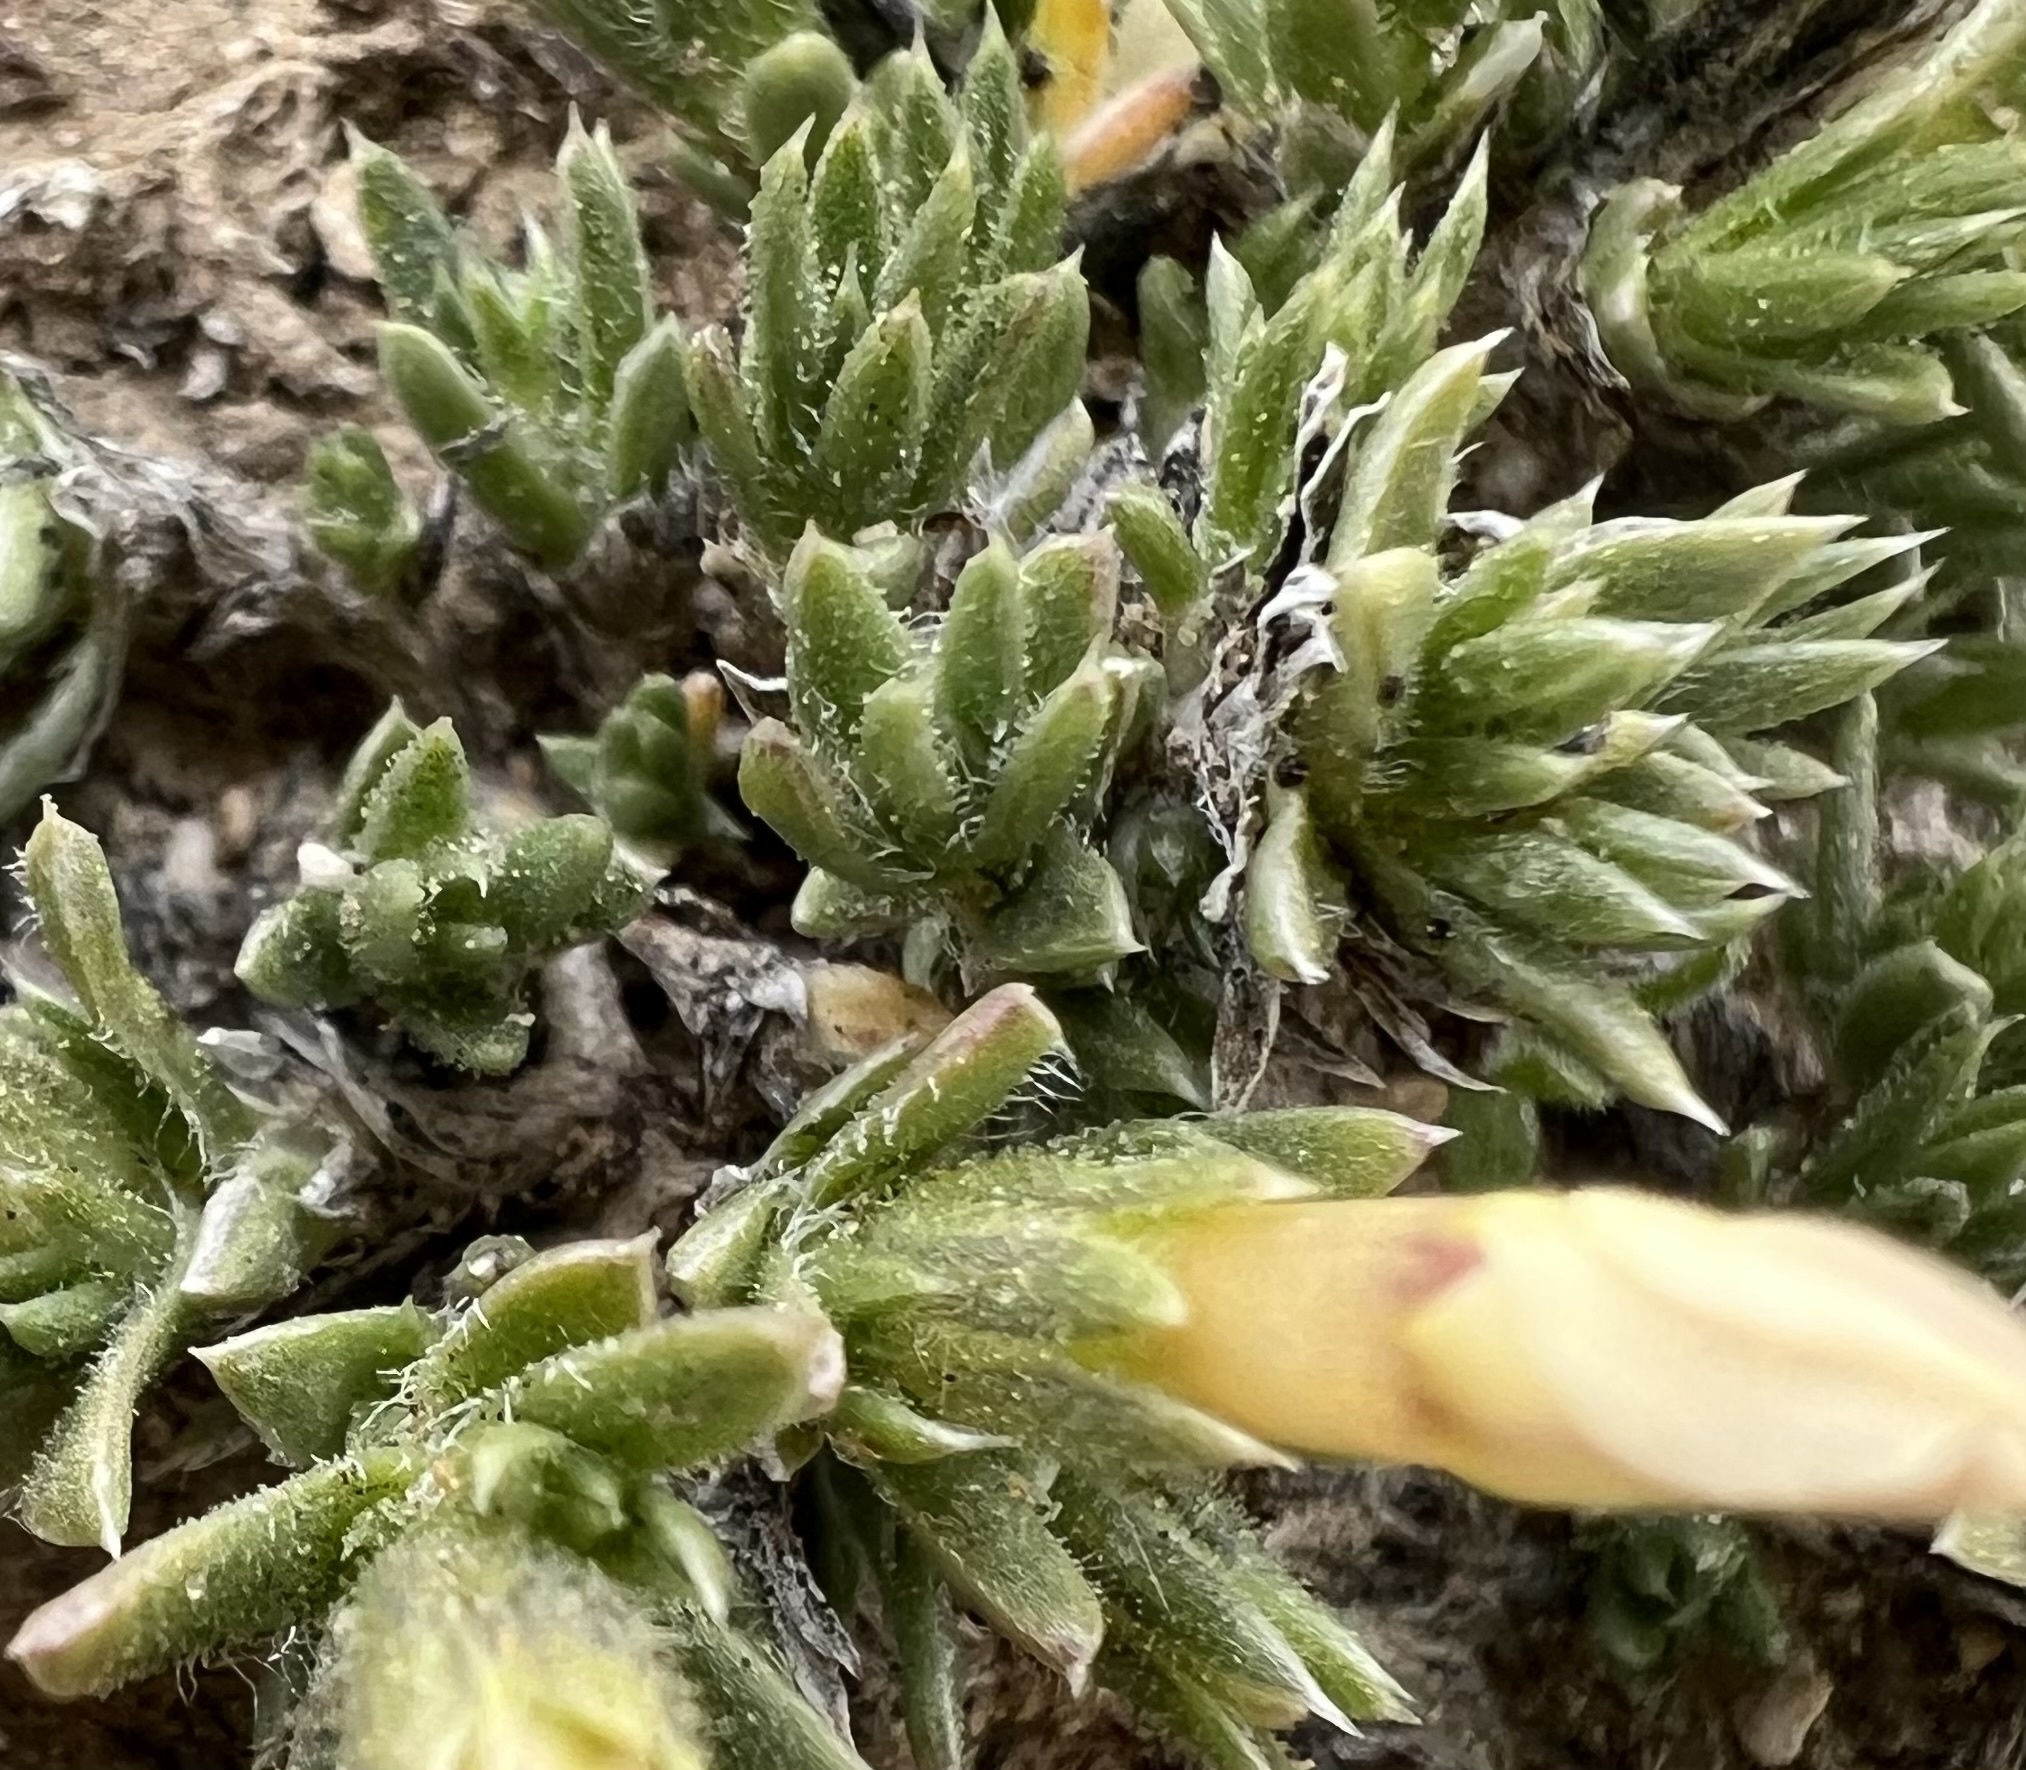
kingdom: Plantae
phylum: Tracheophyta
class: Magnoliopsida
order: Ericales
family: Polemoniaceae
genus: Phlox
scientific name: Phlox condensata
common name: Compact phlox
